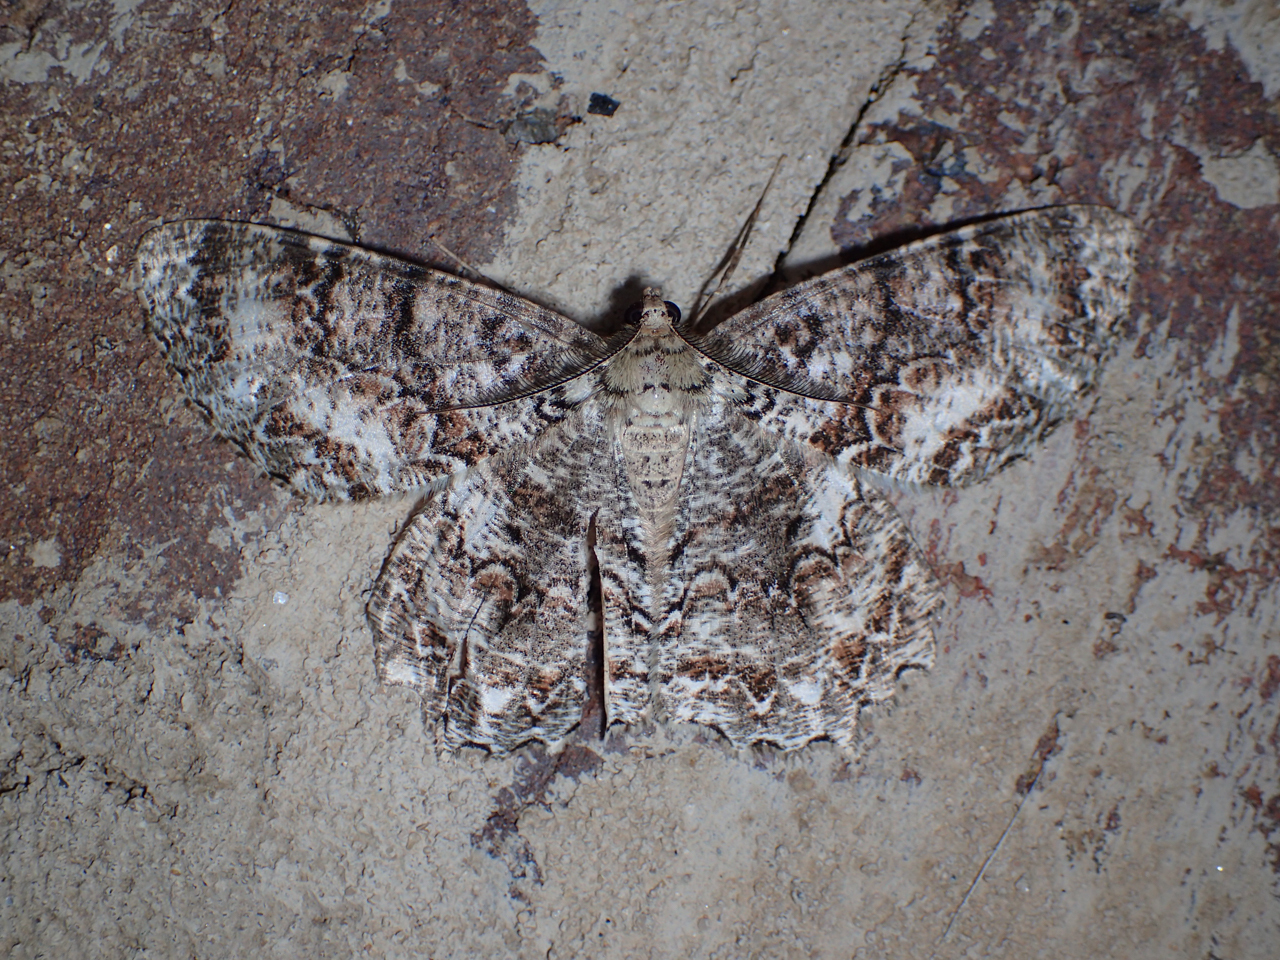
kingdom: Animalia
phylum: Arthropoda
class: Insecta
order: Lepidoptera
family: Geometridae
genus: Epimecis
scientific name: Epimecis hortaria
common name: Tulip-tree beauty
